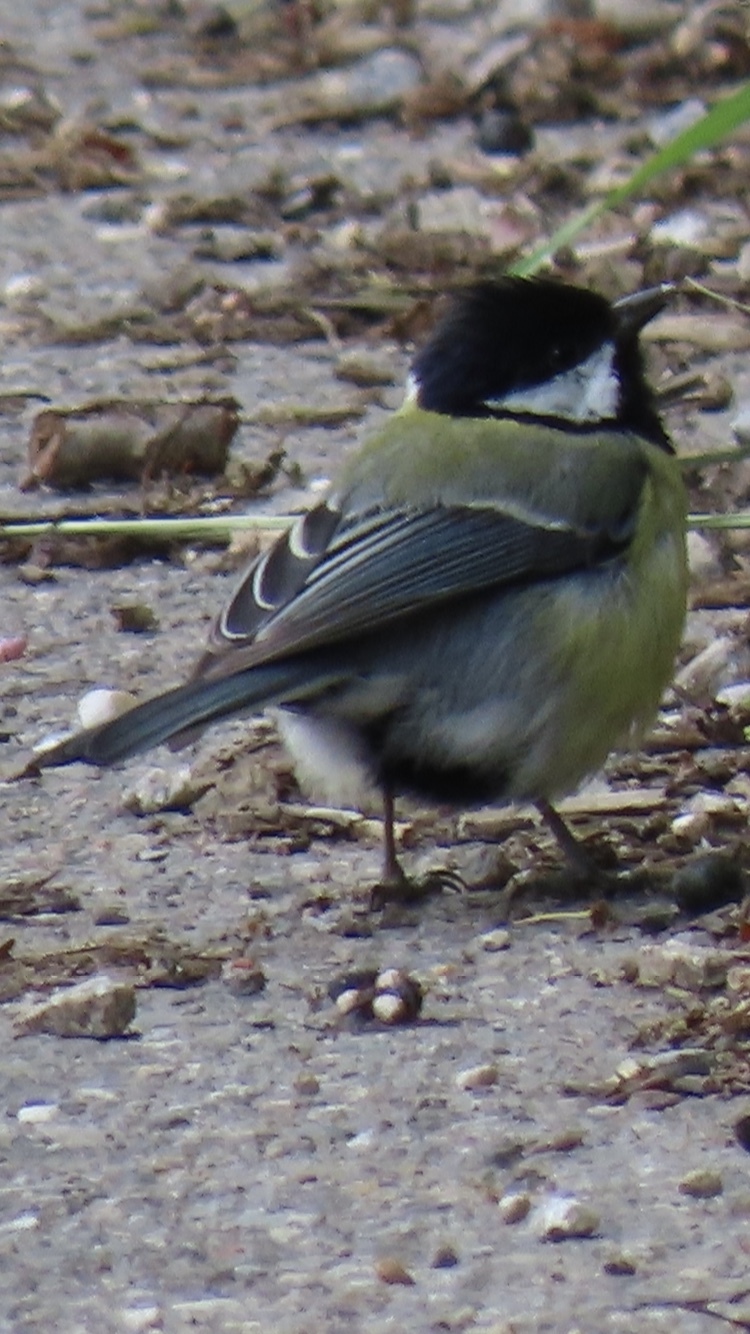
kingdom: Animalia
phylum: Chordata
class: Aves
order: Passeriformes
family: Paridae
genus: Parus
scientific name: Parus major
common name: Great tit
